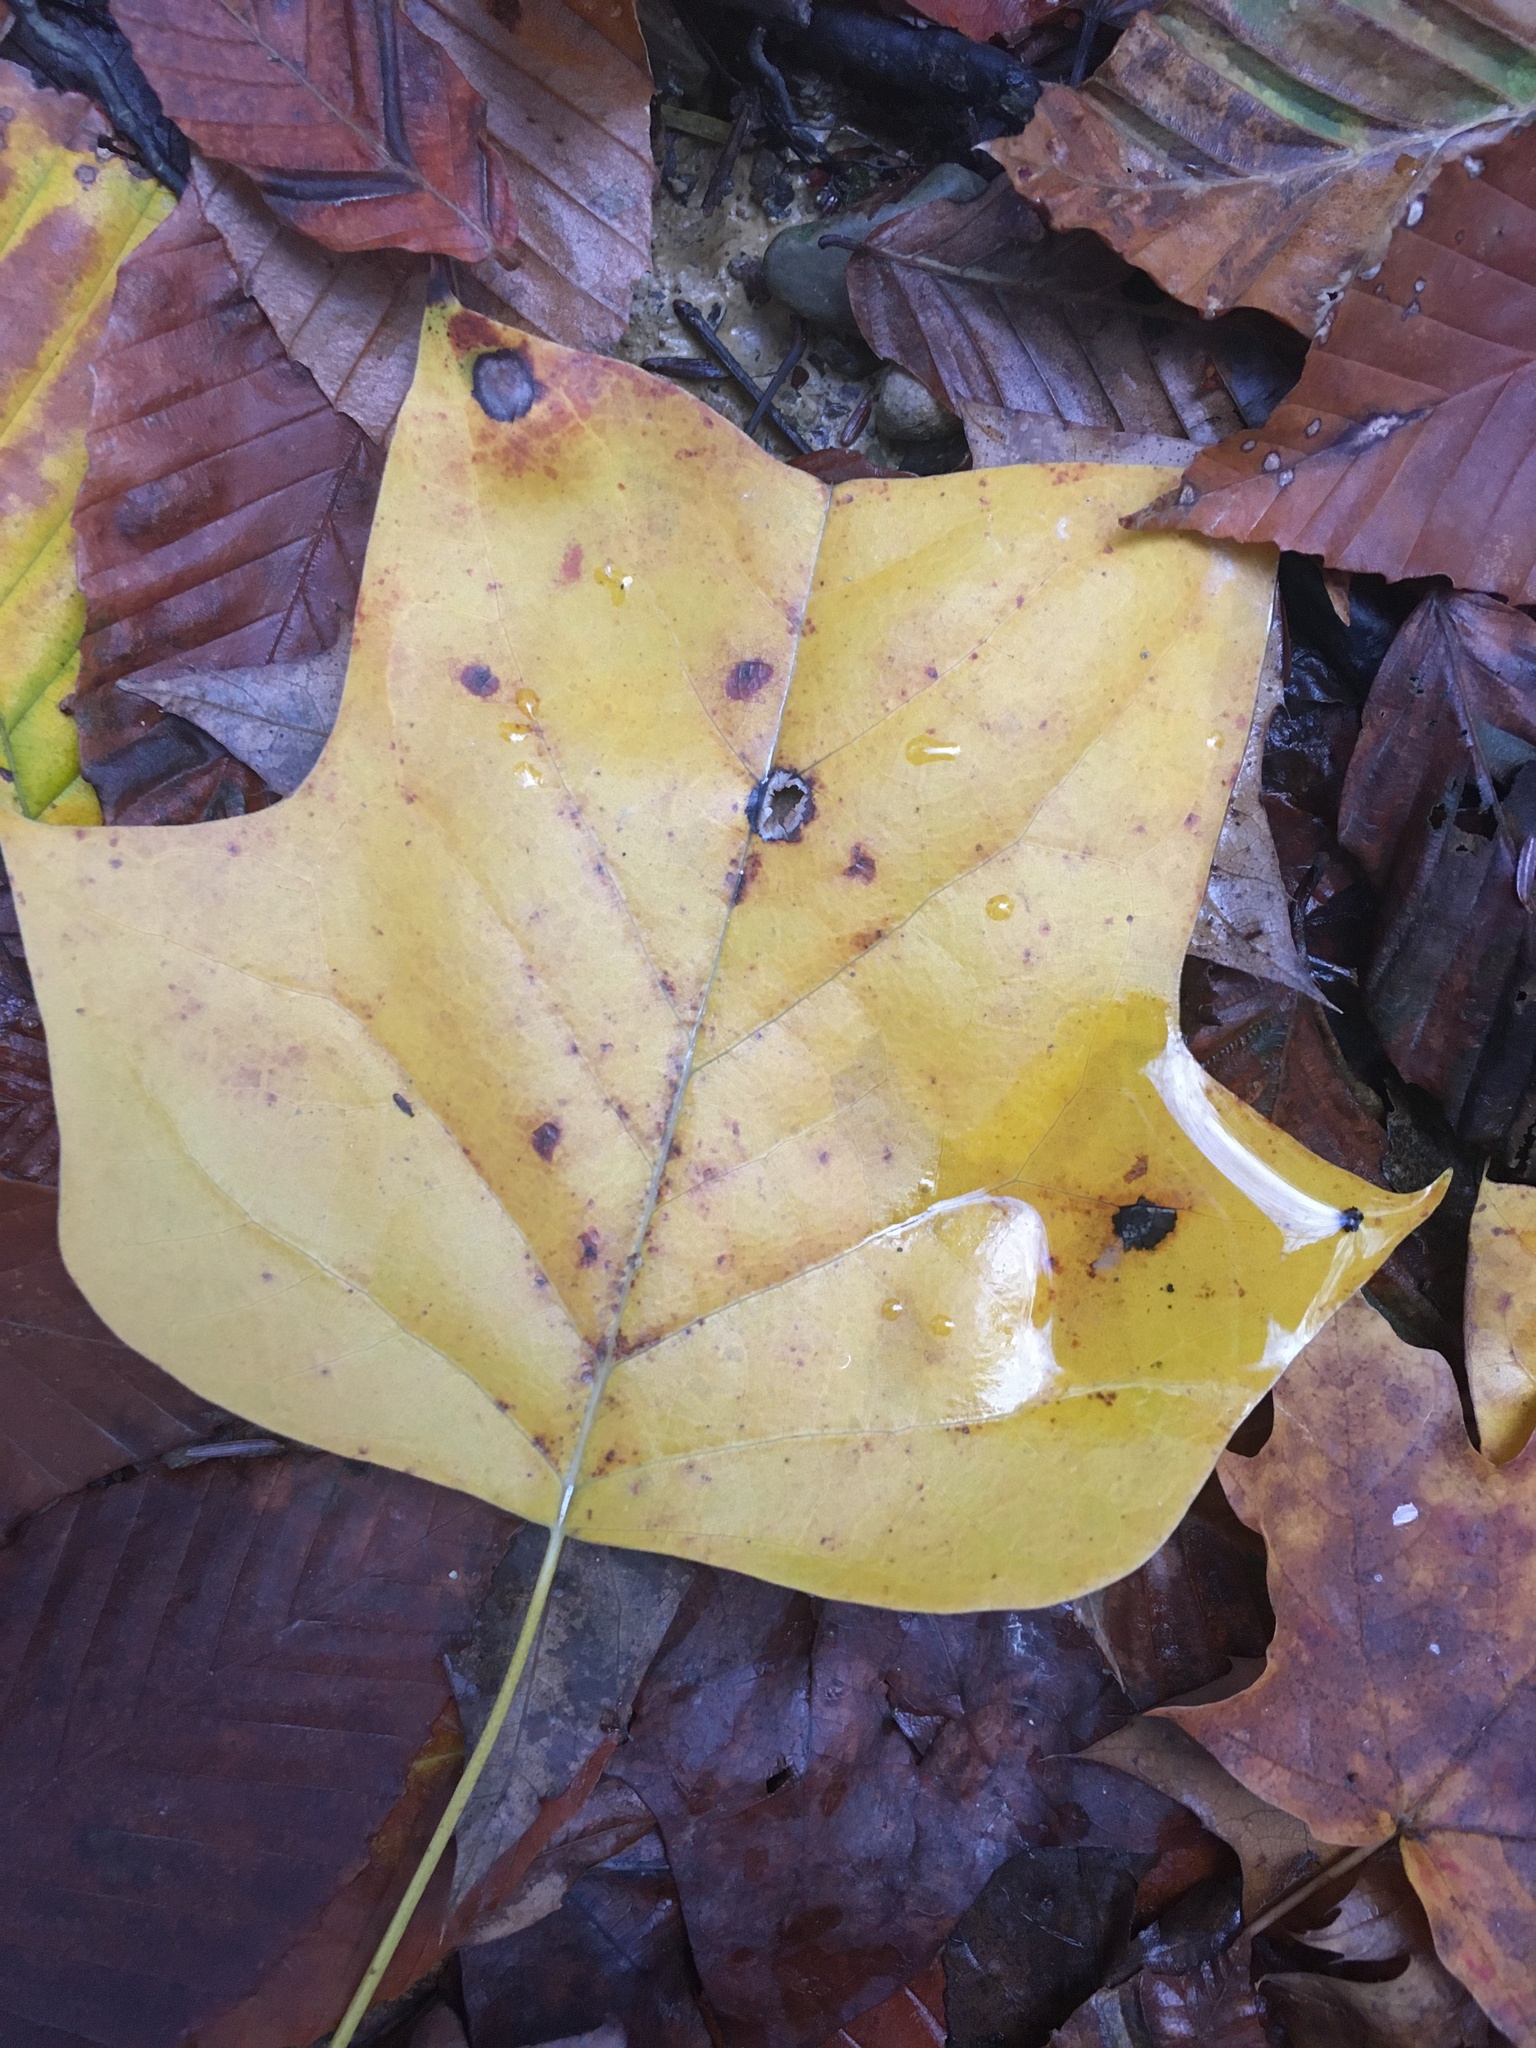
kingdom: Plantae
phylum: Tracheophyta
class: Magnoliopsida
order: Magnoliales
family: Magnoliaceae
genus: Liriodendron
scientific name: Liriodendron tulipifera
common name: Tulip tree
